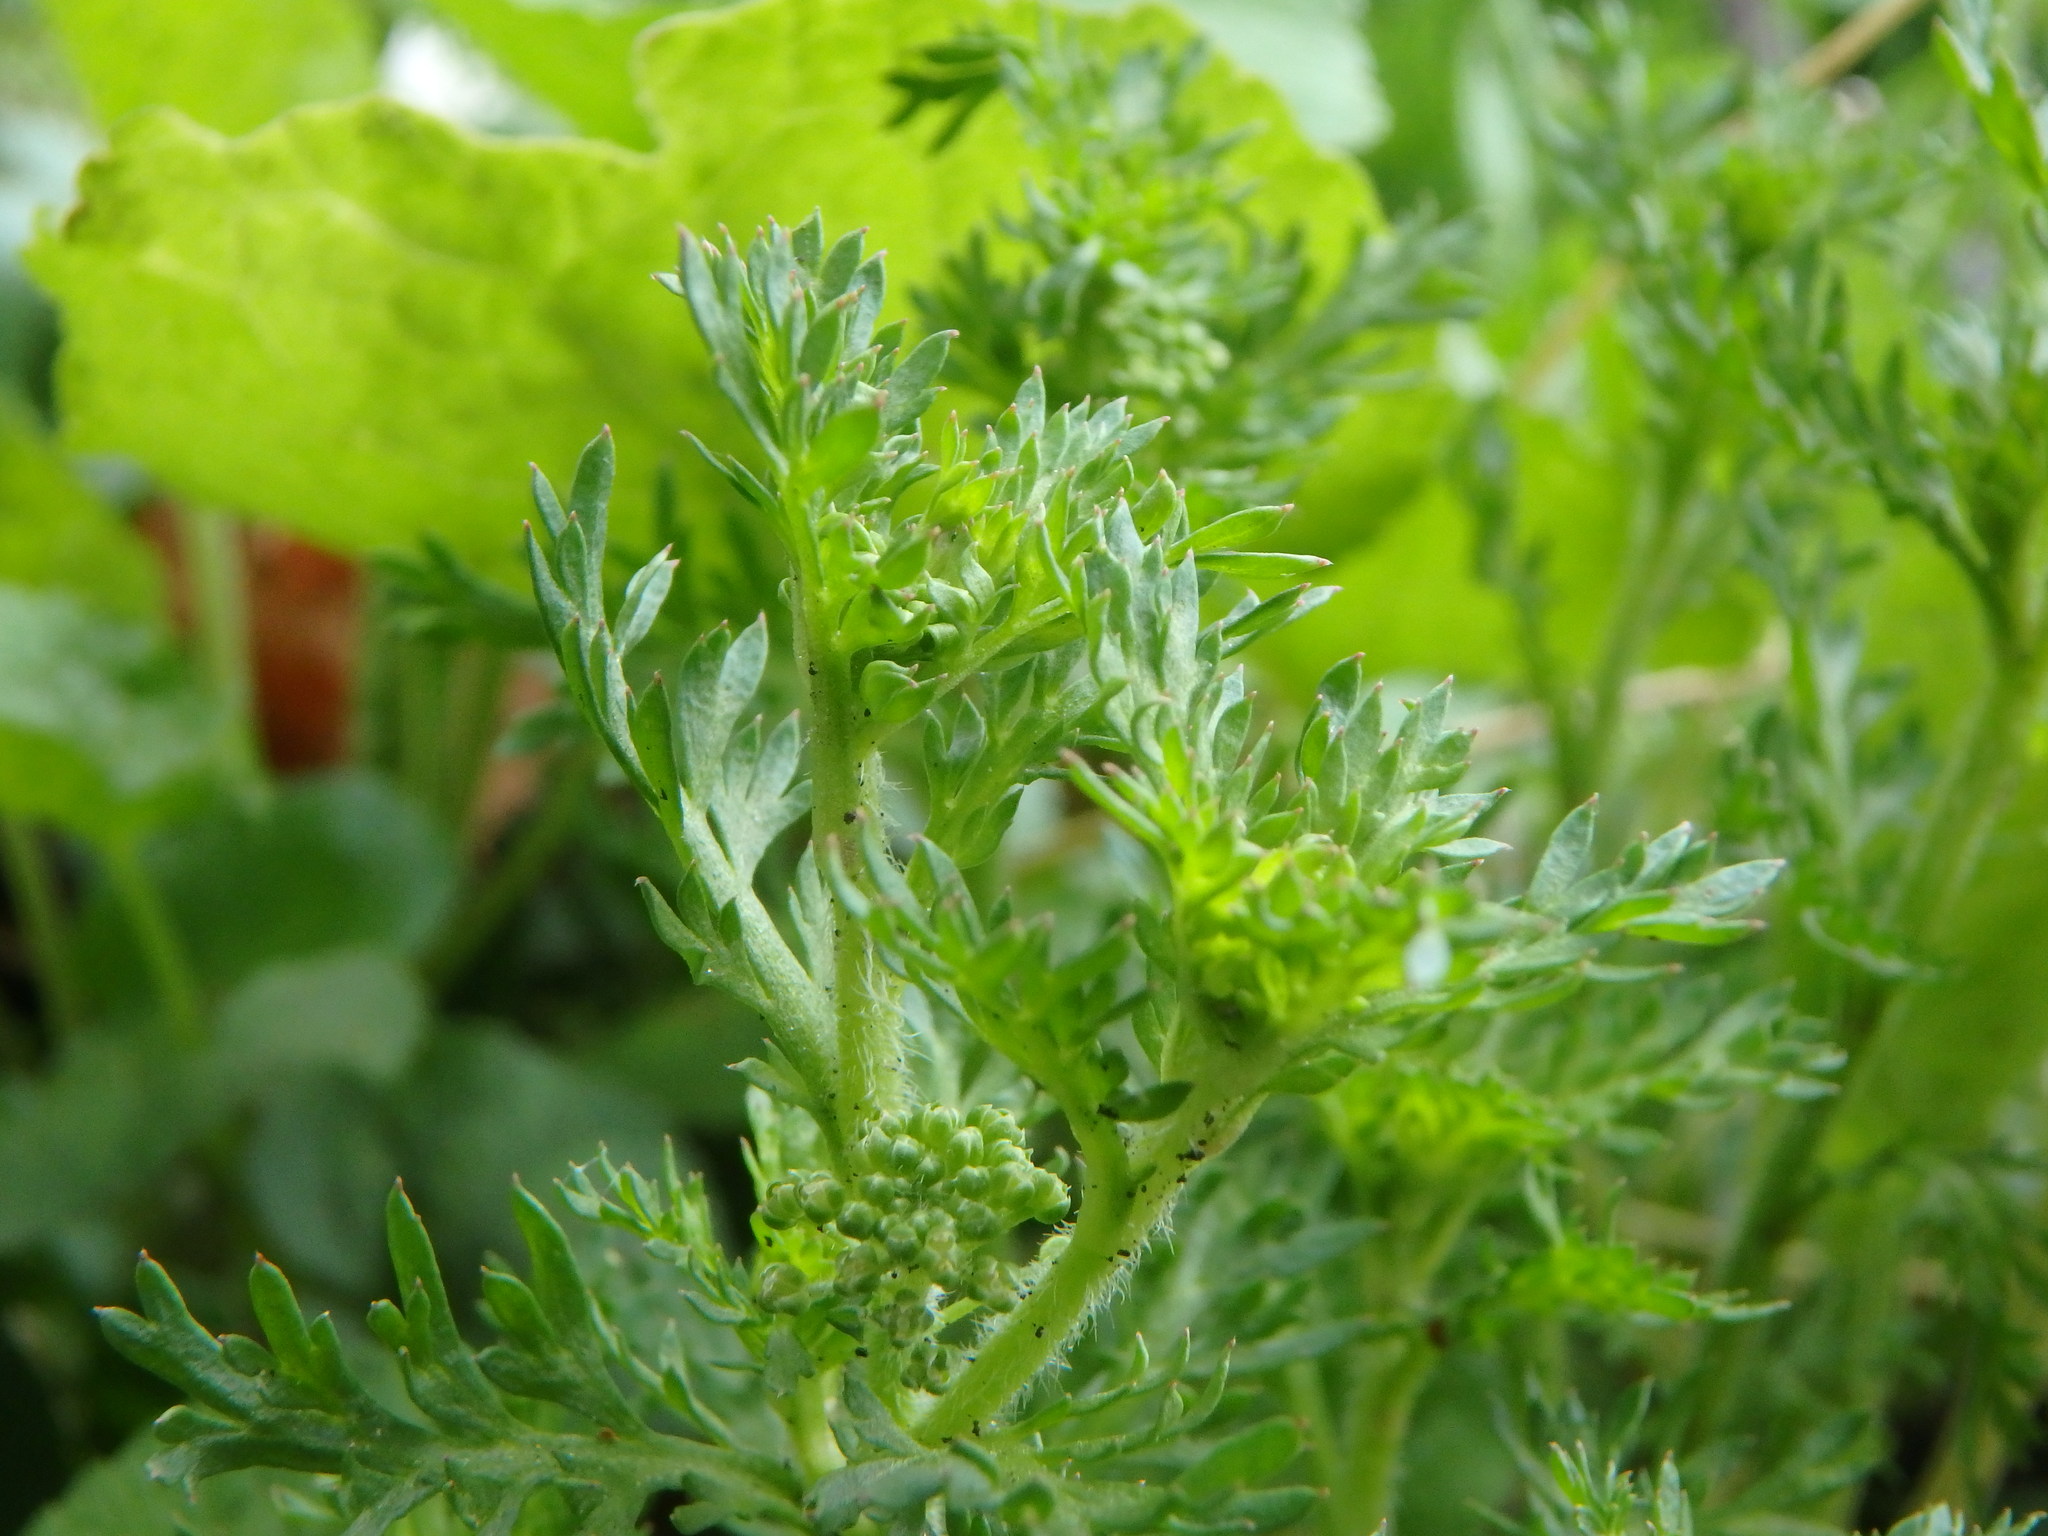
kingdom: Plantae
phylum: Tracheophyta
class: Magnoliopsida
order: Brassicales
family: Brassicaceae
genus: Lepidium
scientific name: Lepidium didymum
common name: Lesser swinecress
